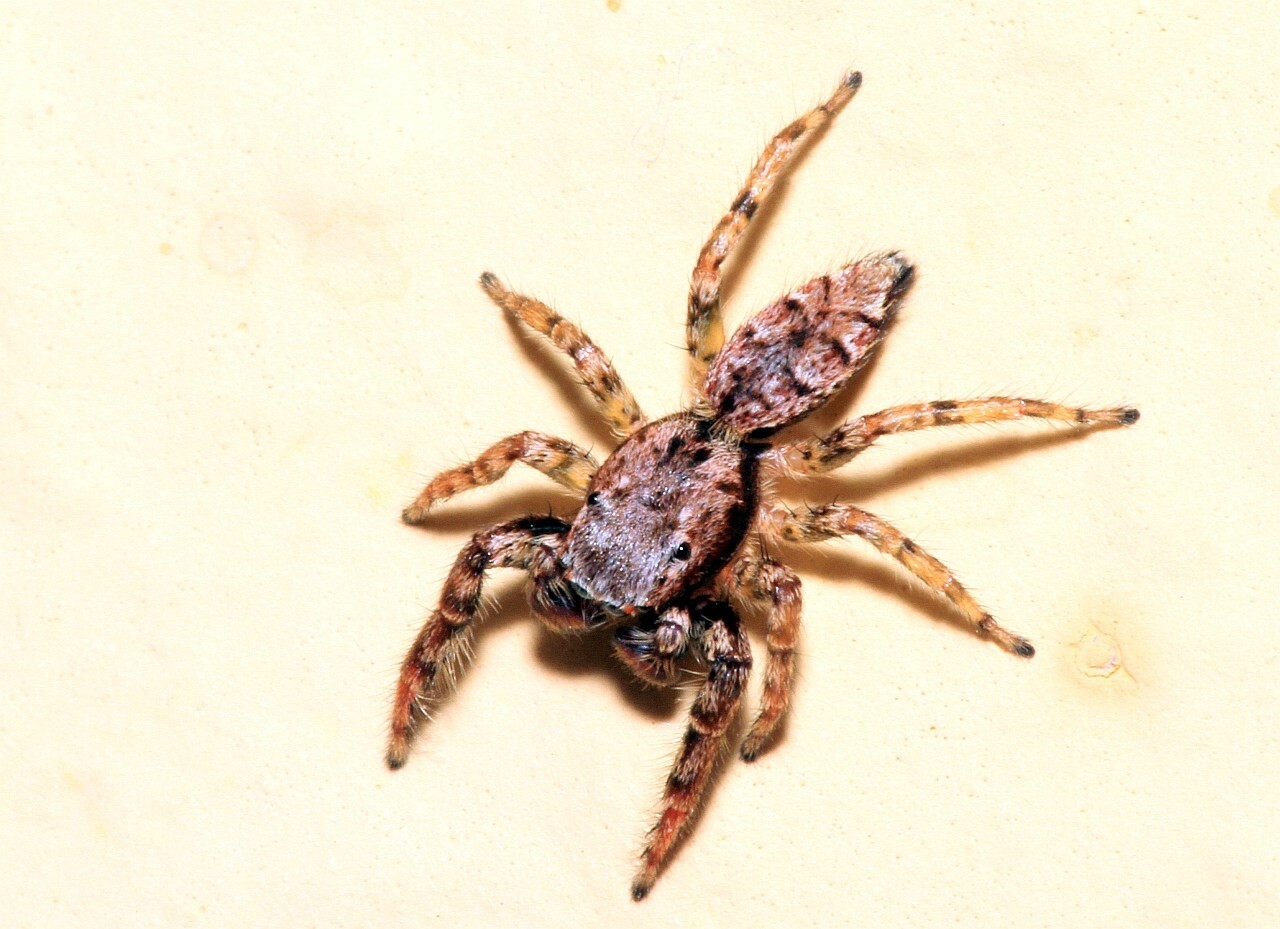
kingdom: Animalia
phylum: Arthropoda
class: Arachnida
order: Araneae
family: Salticidae
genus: Marpissa
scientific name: Marpissa muscosa
